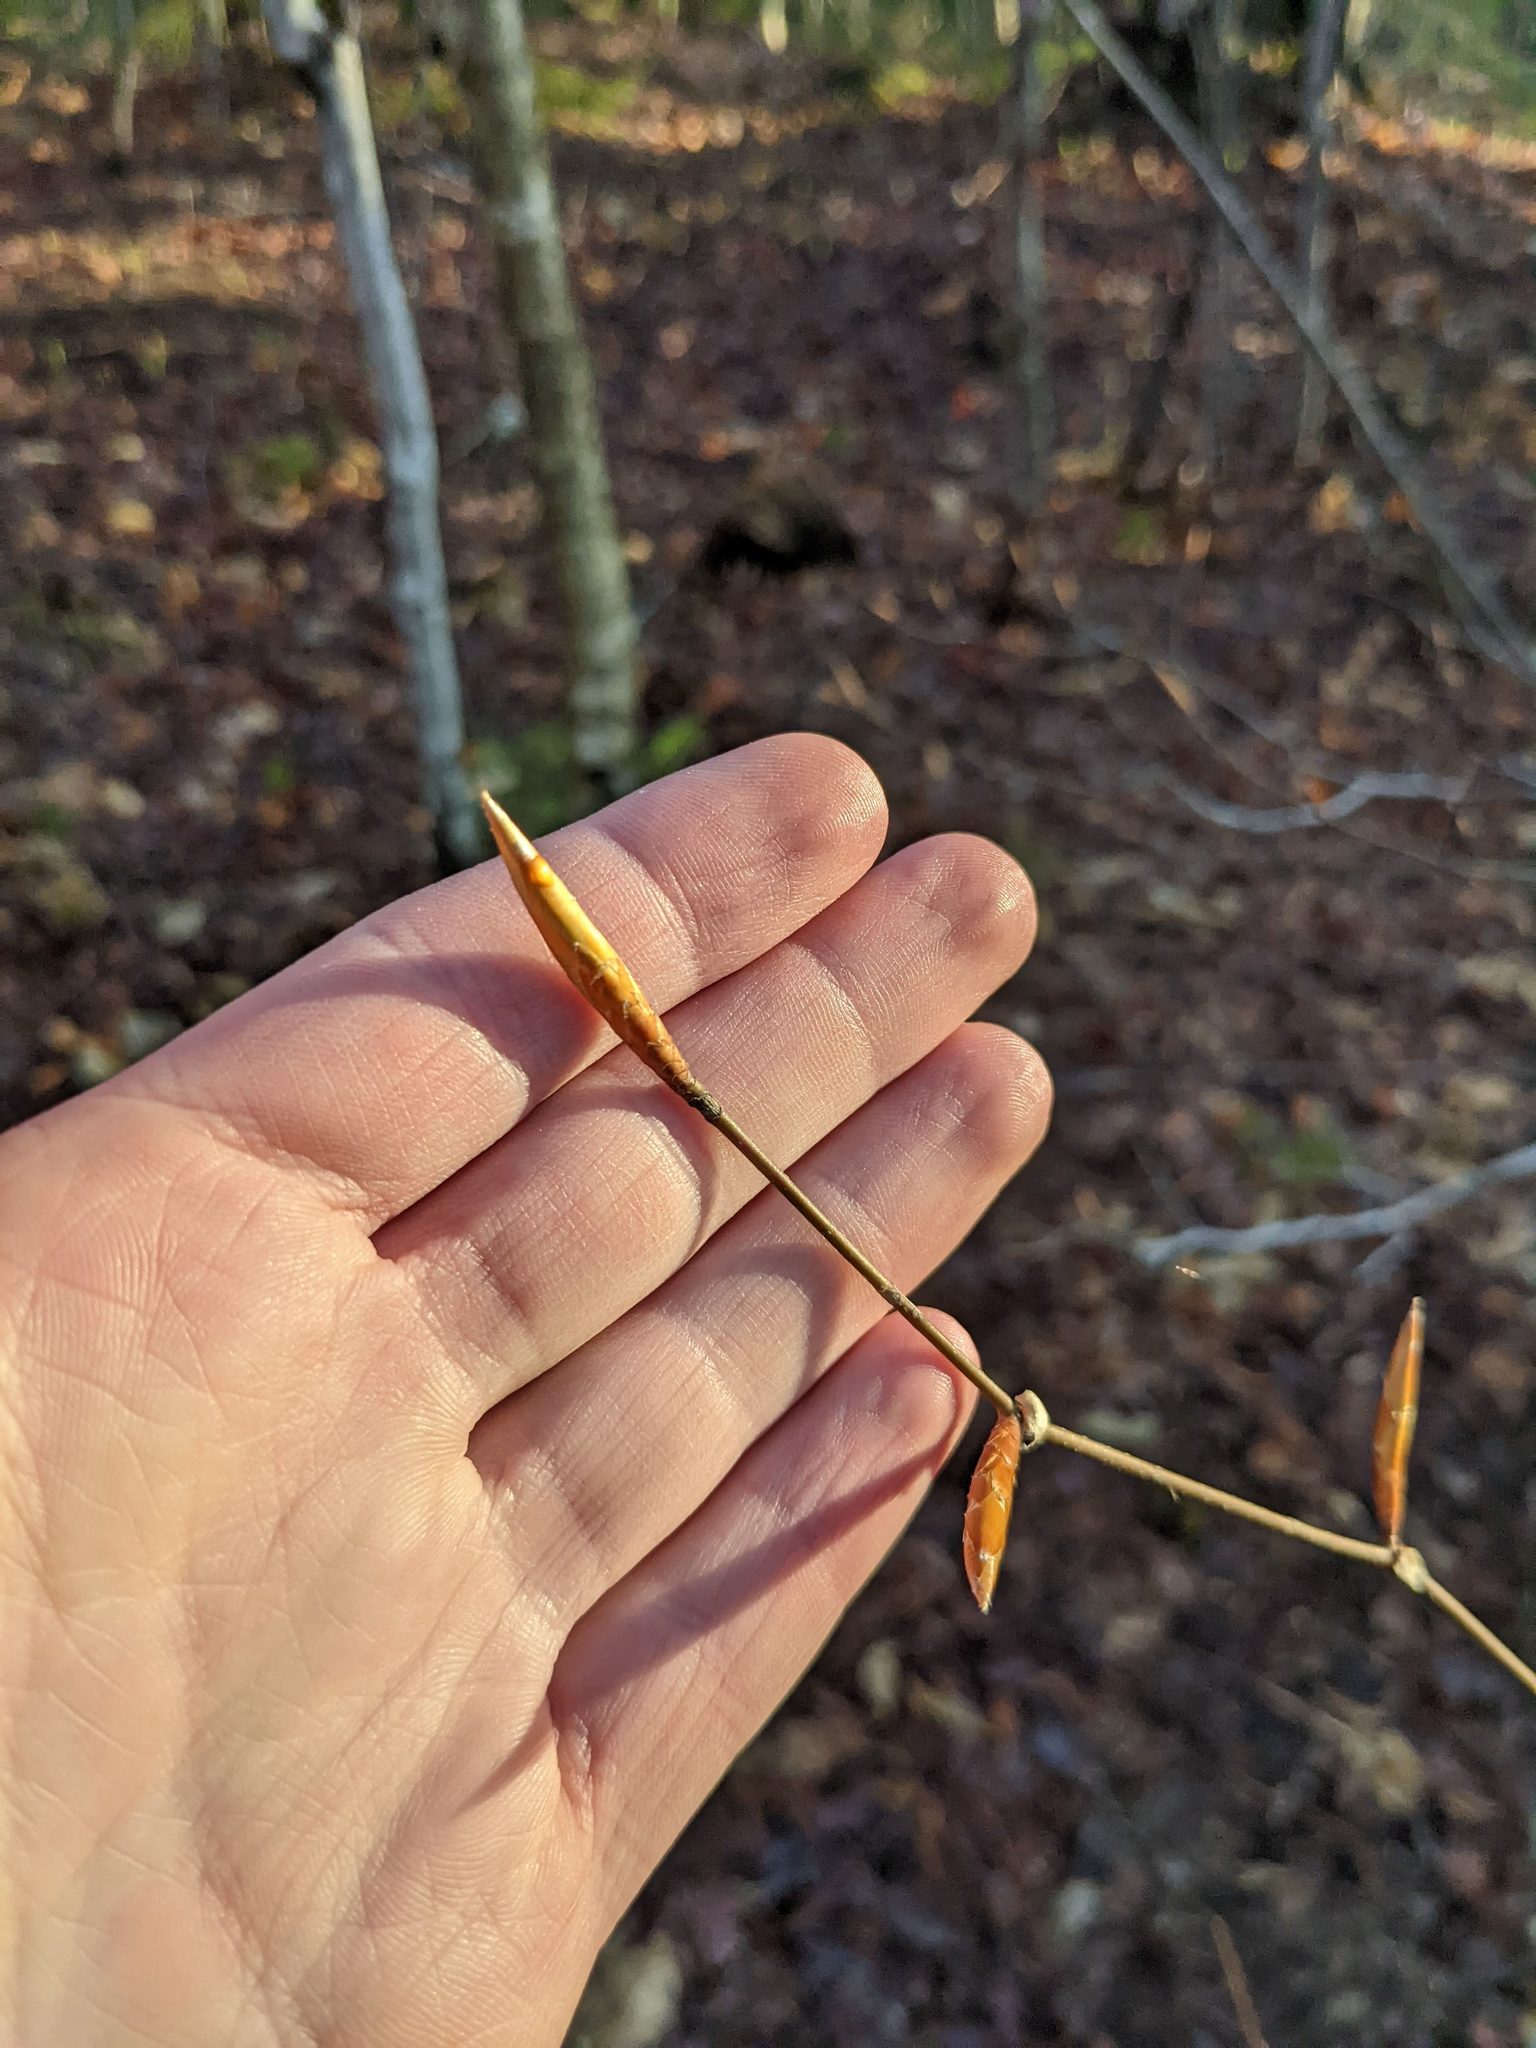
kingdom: Plantae
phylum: Tracheophyta
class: Magnoliopsida
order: Fagales
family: Fagaceae
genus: Fagus
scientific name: Fagus grandifolia
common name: American beech
